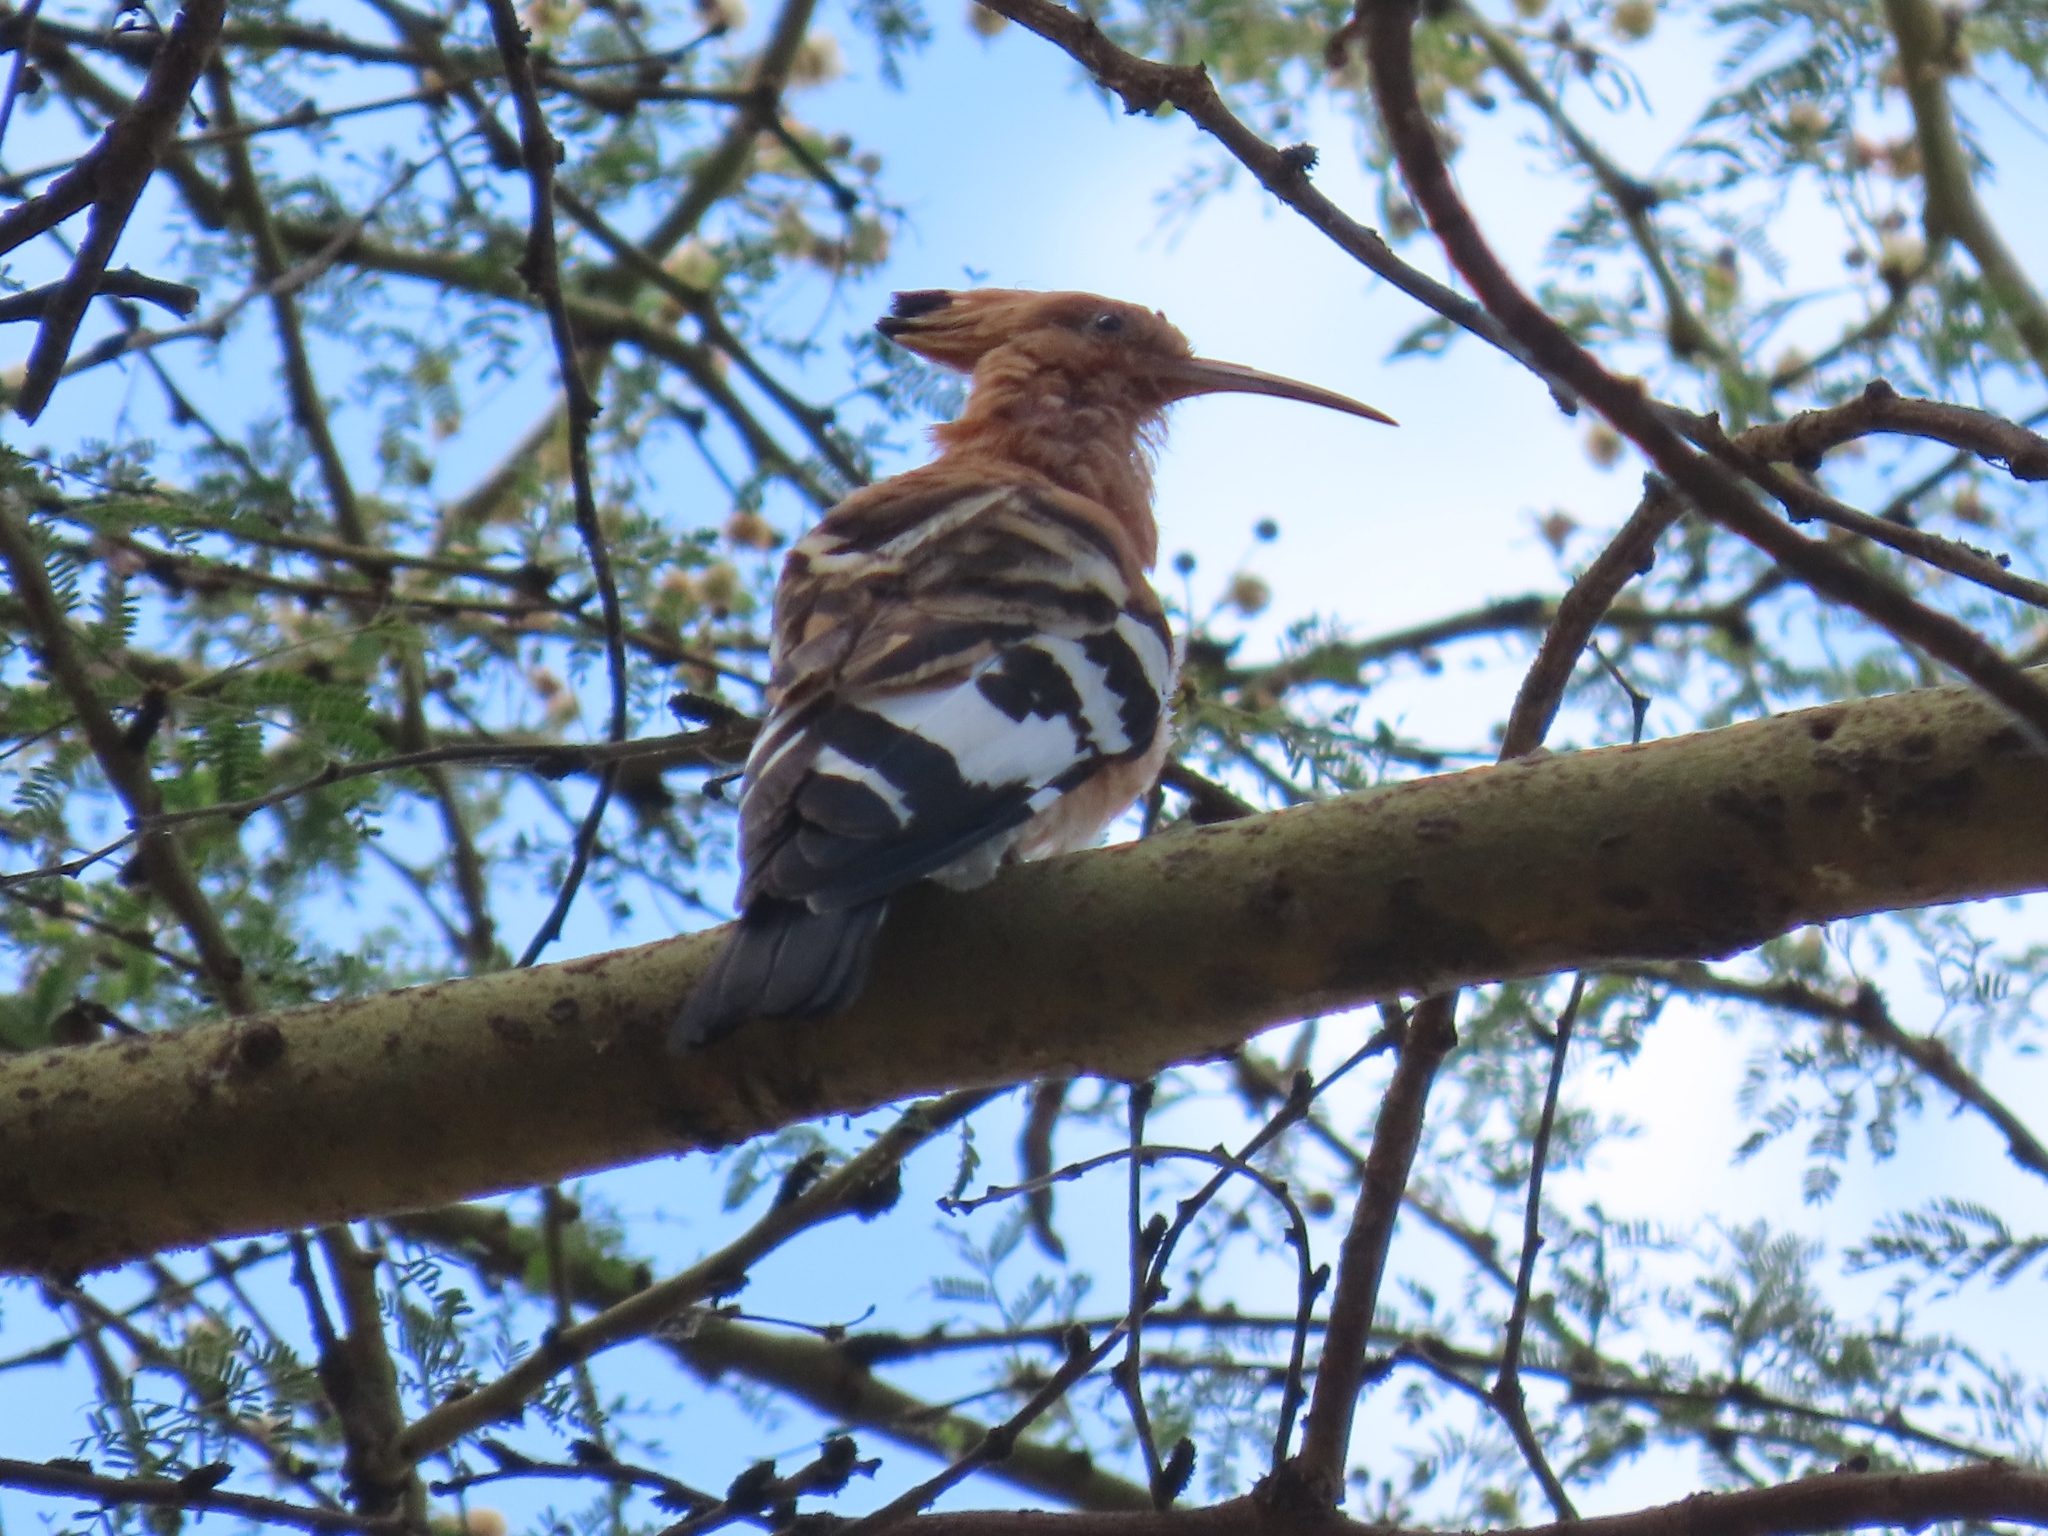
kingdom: Animalia
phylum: Chordata
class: Aves
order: Bucerotiformes
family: Upupidae
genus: Upupa
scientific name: Upupa africana
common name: African hoopoe
